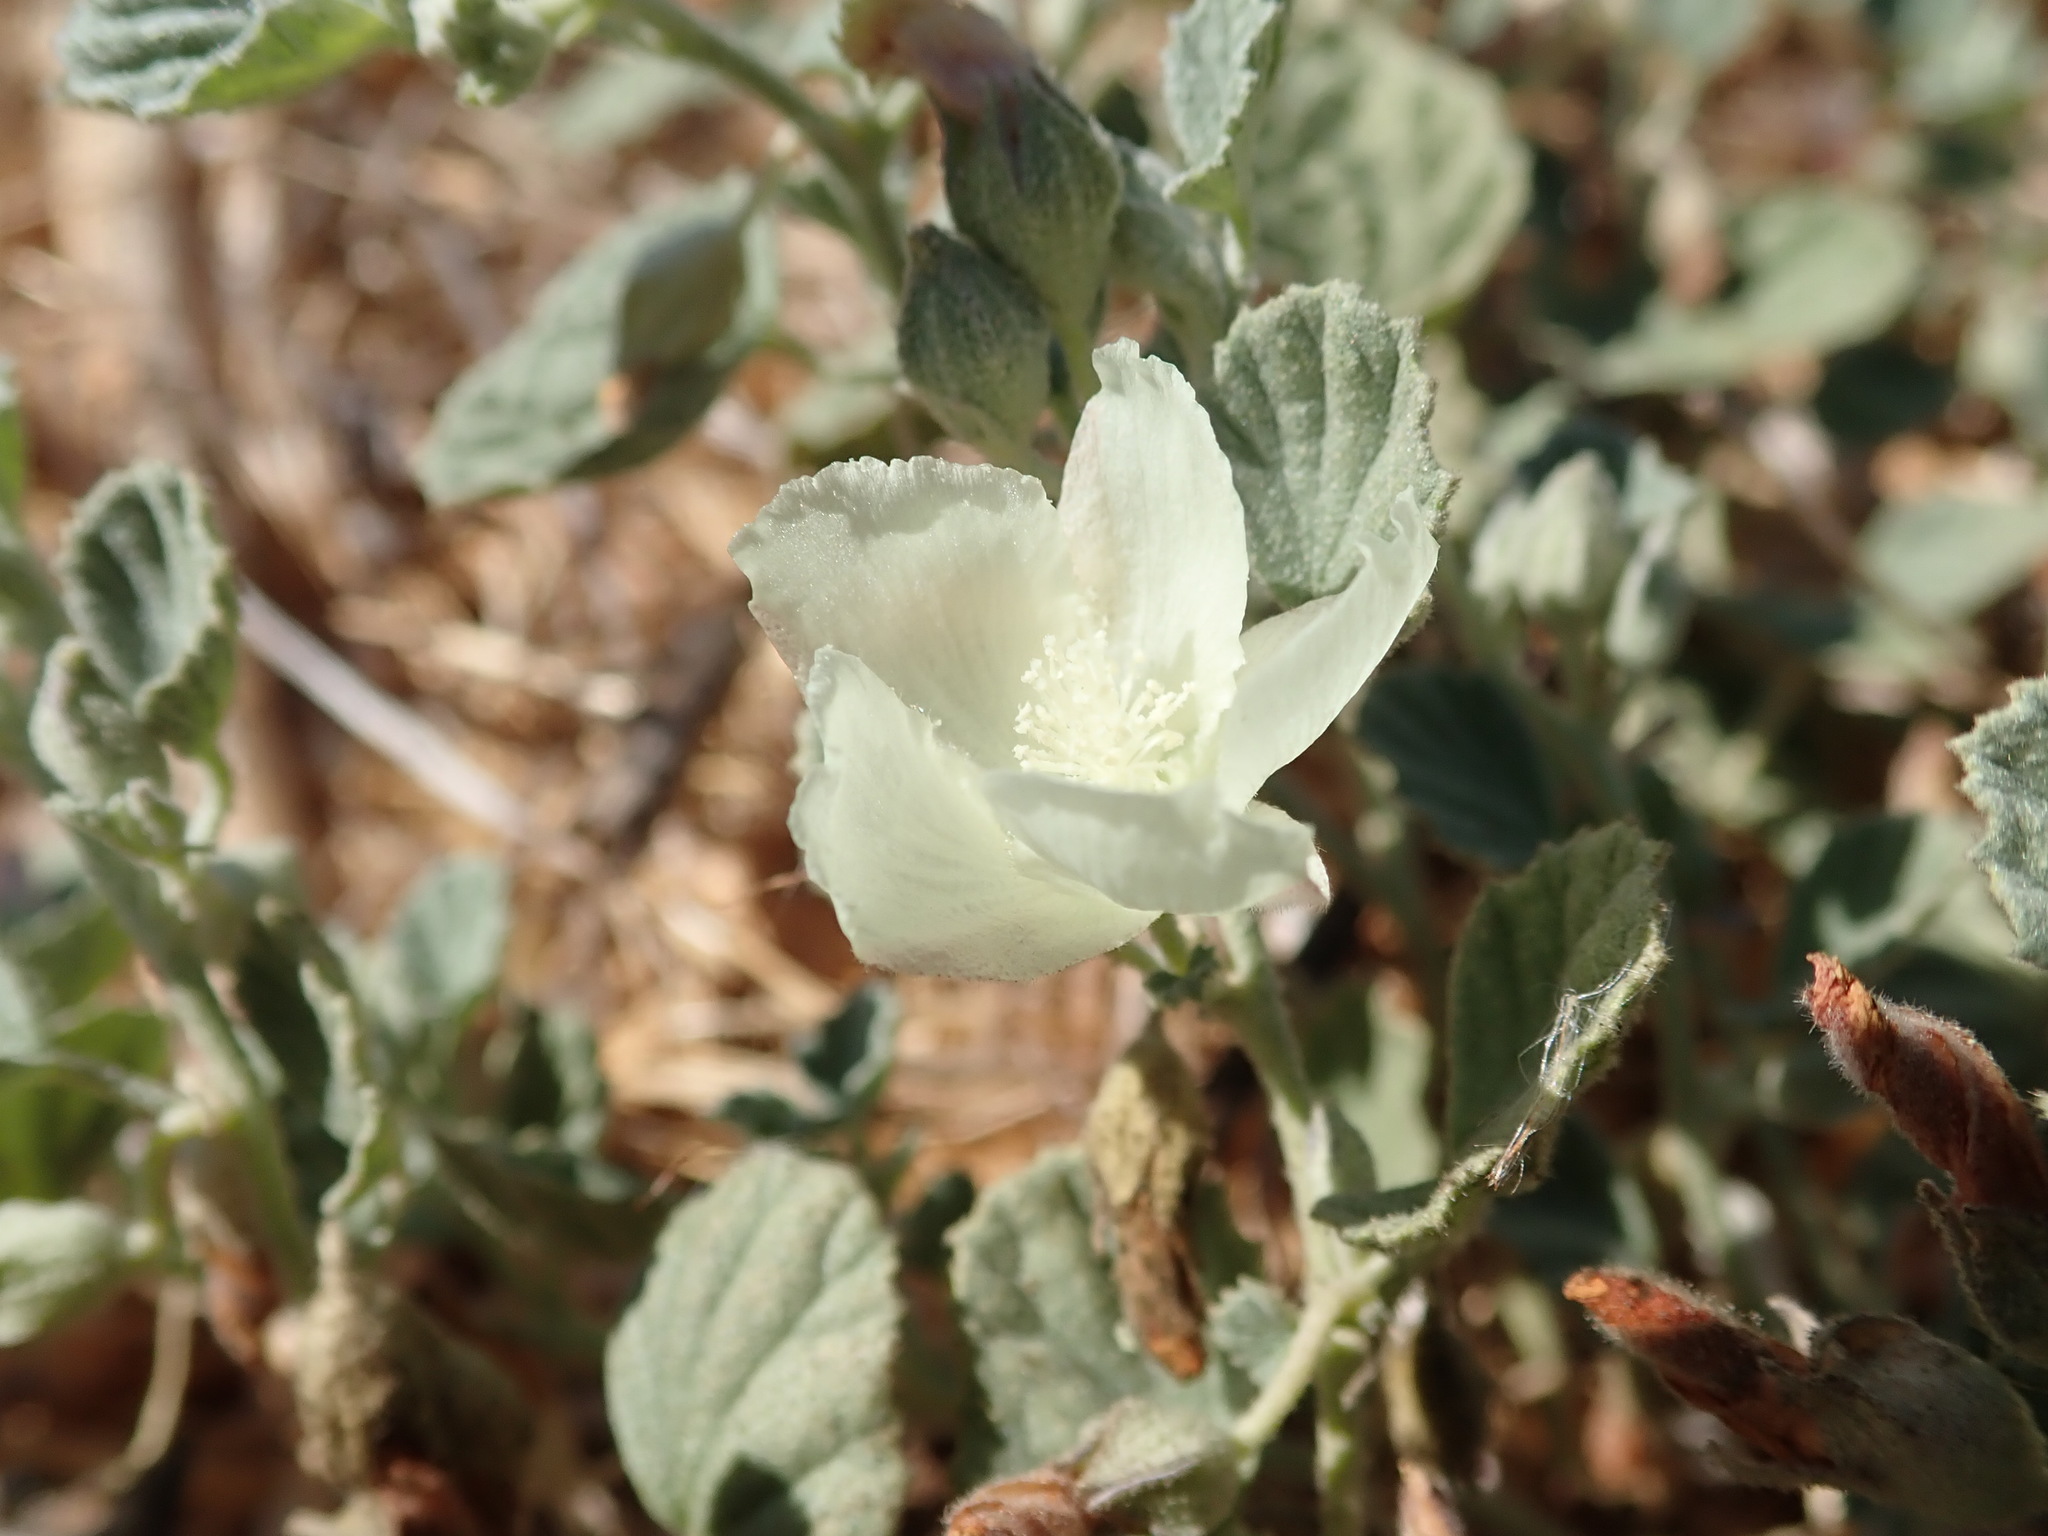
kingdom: Plantae
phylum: Tracheophyta
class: Magnoliopsida
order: Malvales
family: Malvaceae
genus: Malvella
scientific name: Malvella leprosa
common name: Alkali-mallow
